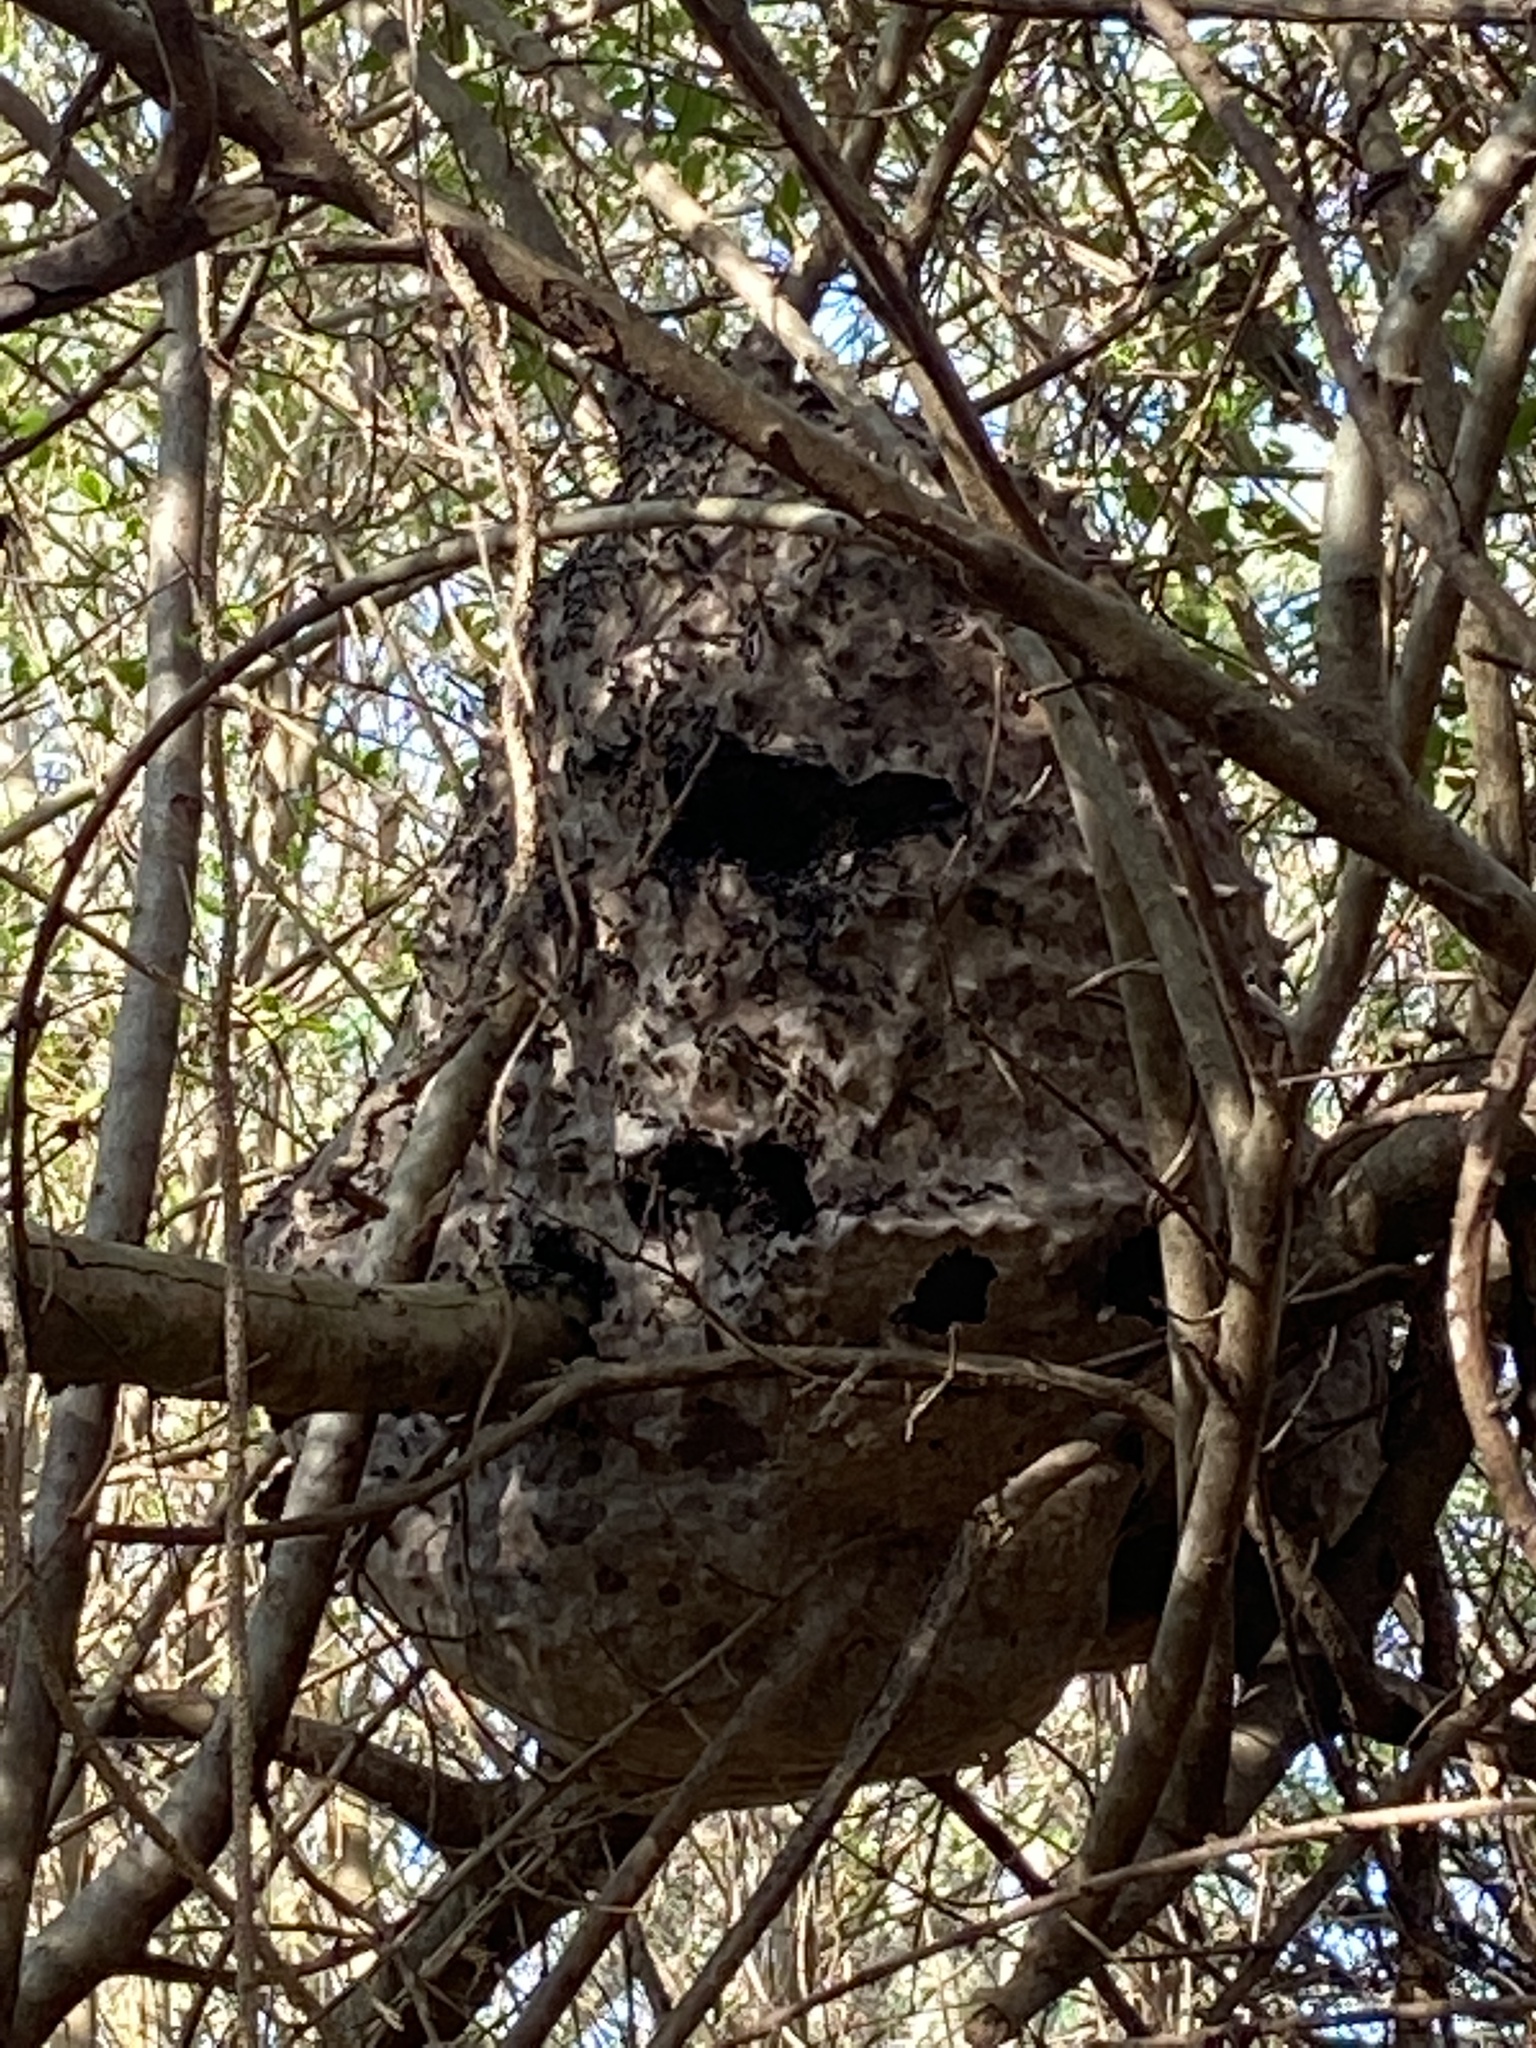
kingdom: Animalia
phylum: Arthropoda
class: Insecta
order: Hymenoptera
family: Eumenidae
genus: Polybia
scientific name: Polybia scutellaris
